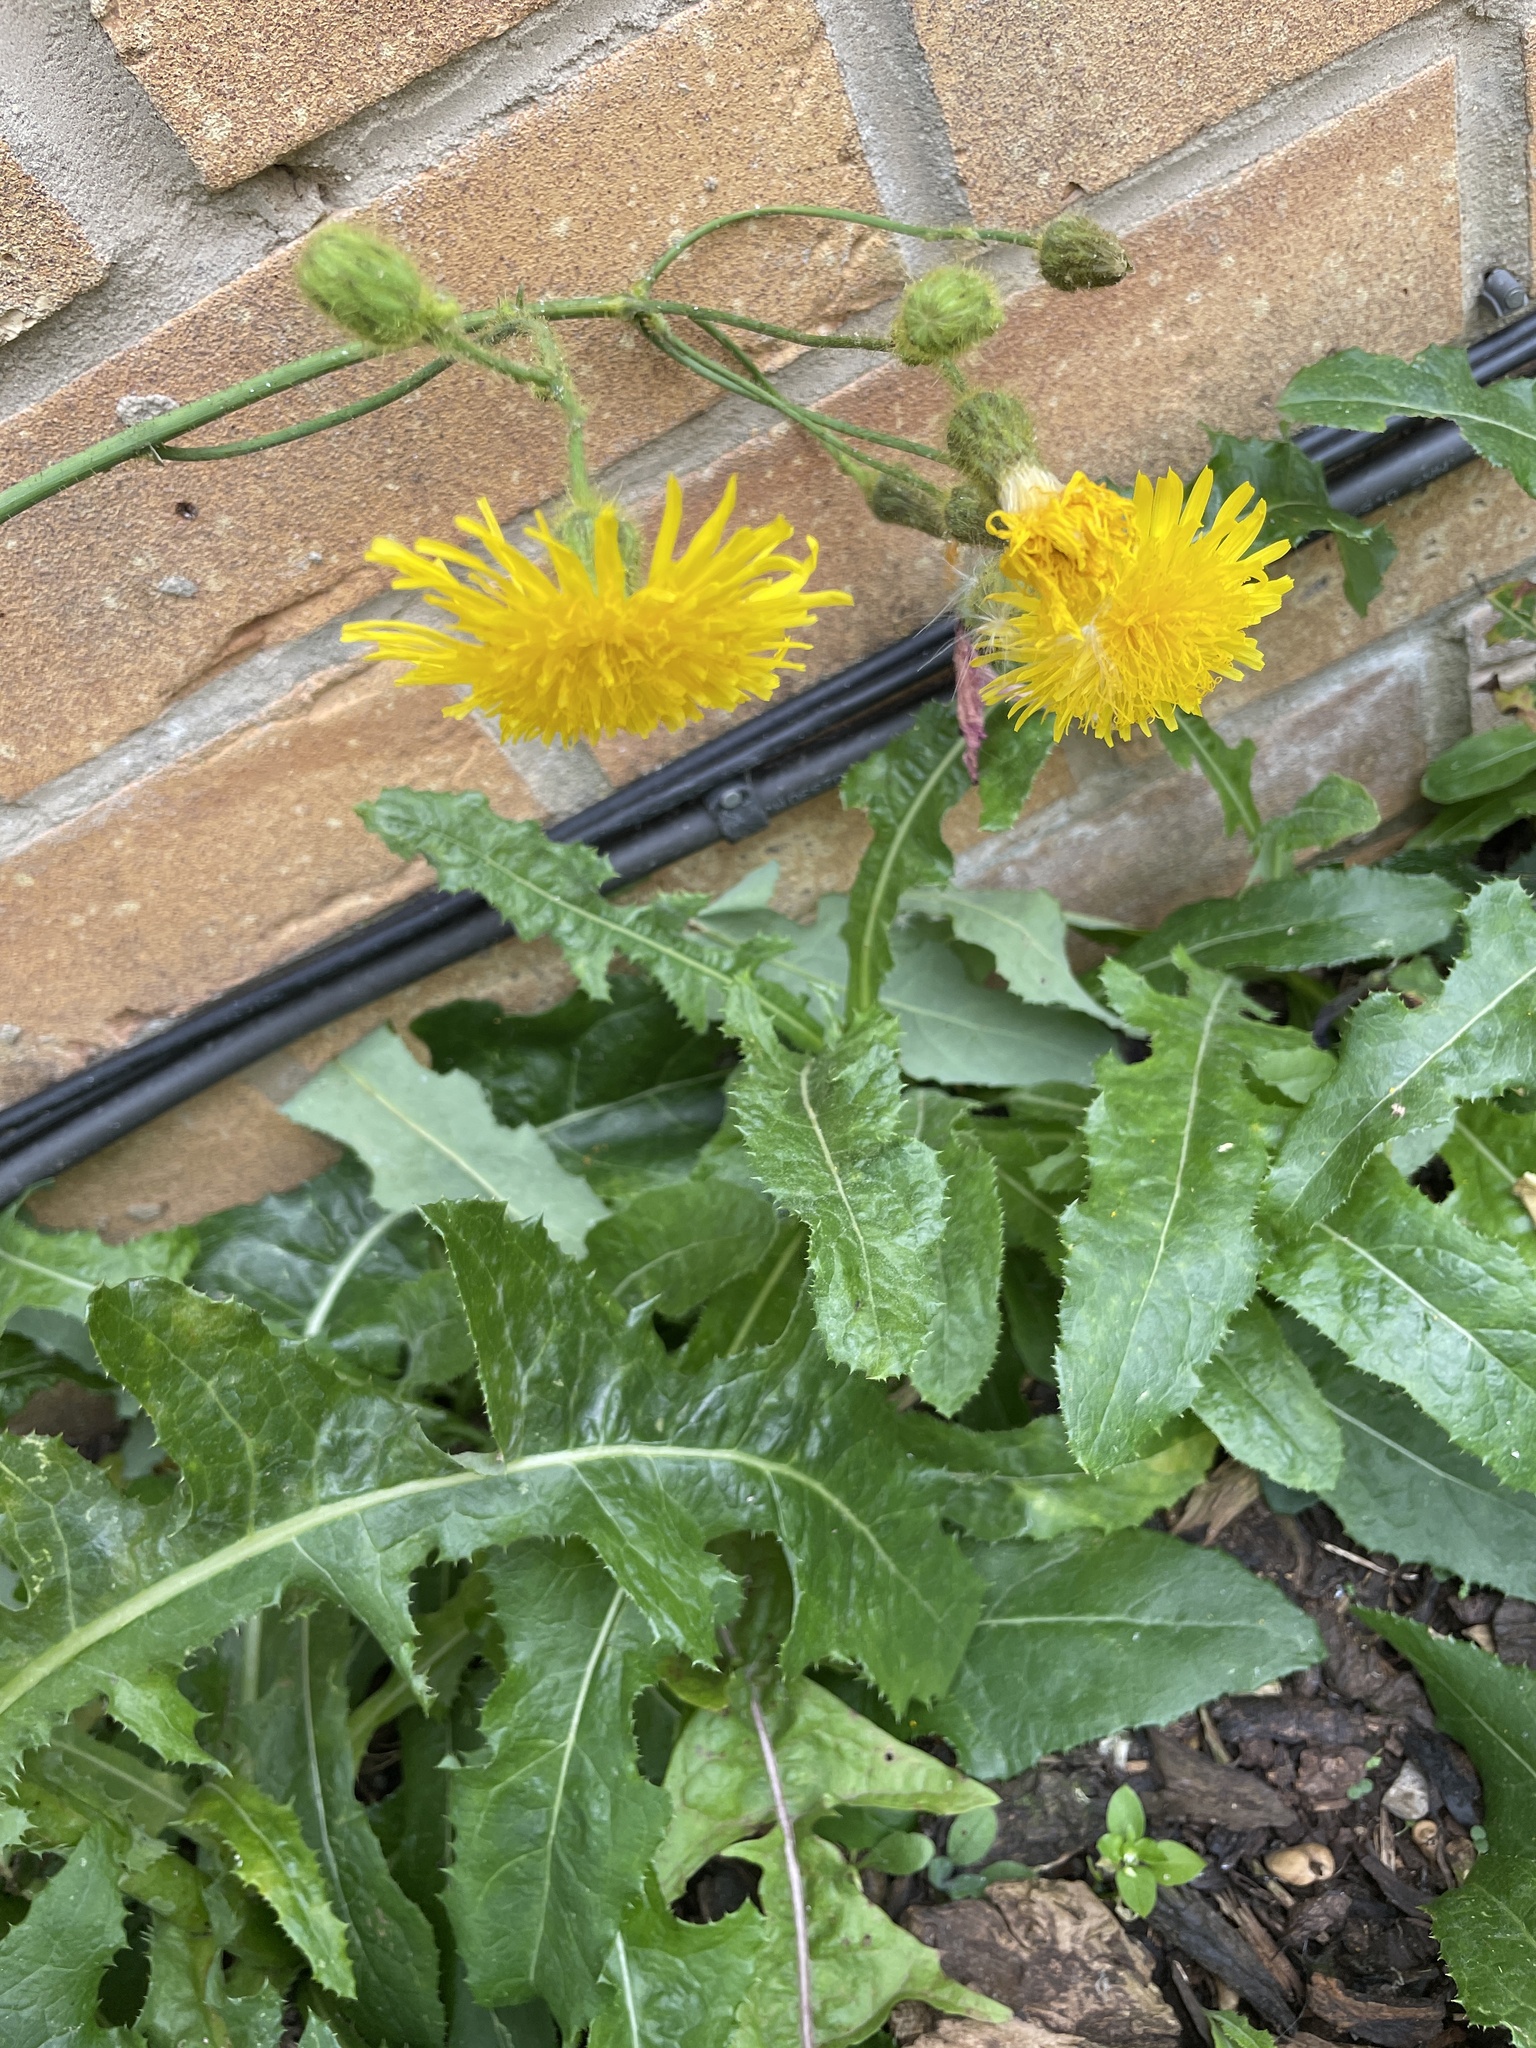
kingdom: Plantae
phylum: Tracheophyta
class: Magnoliopsida
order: Asterales
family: Asteraceae
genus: Sonchus
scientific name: Sonchus arvensis
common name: Perennial sow-thistle
